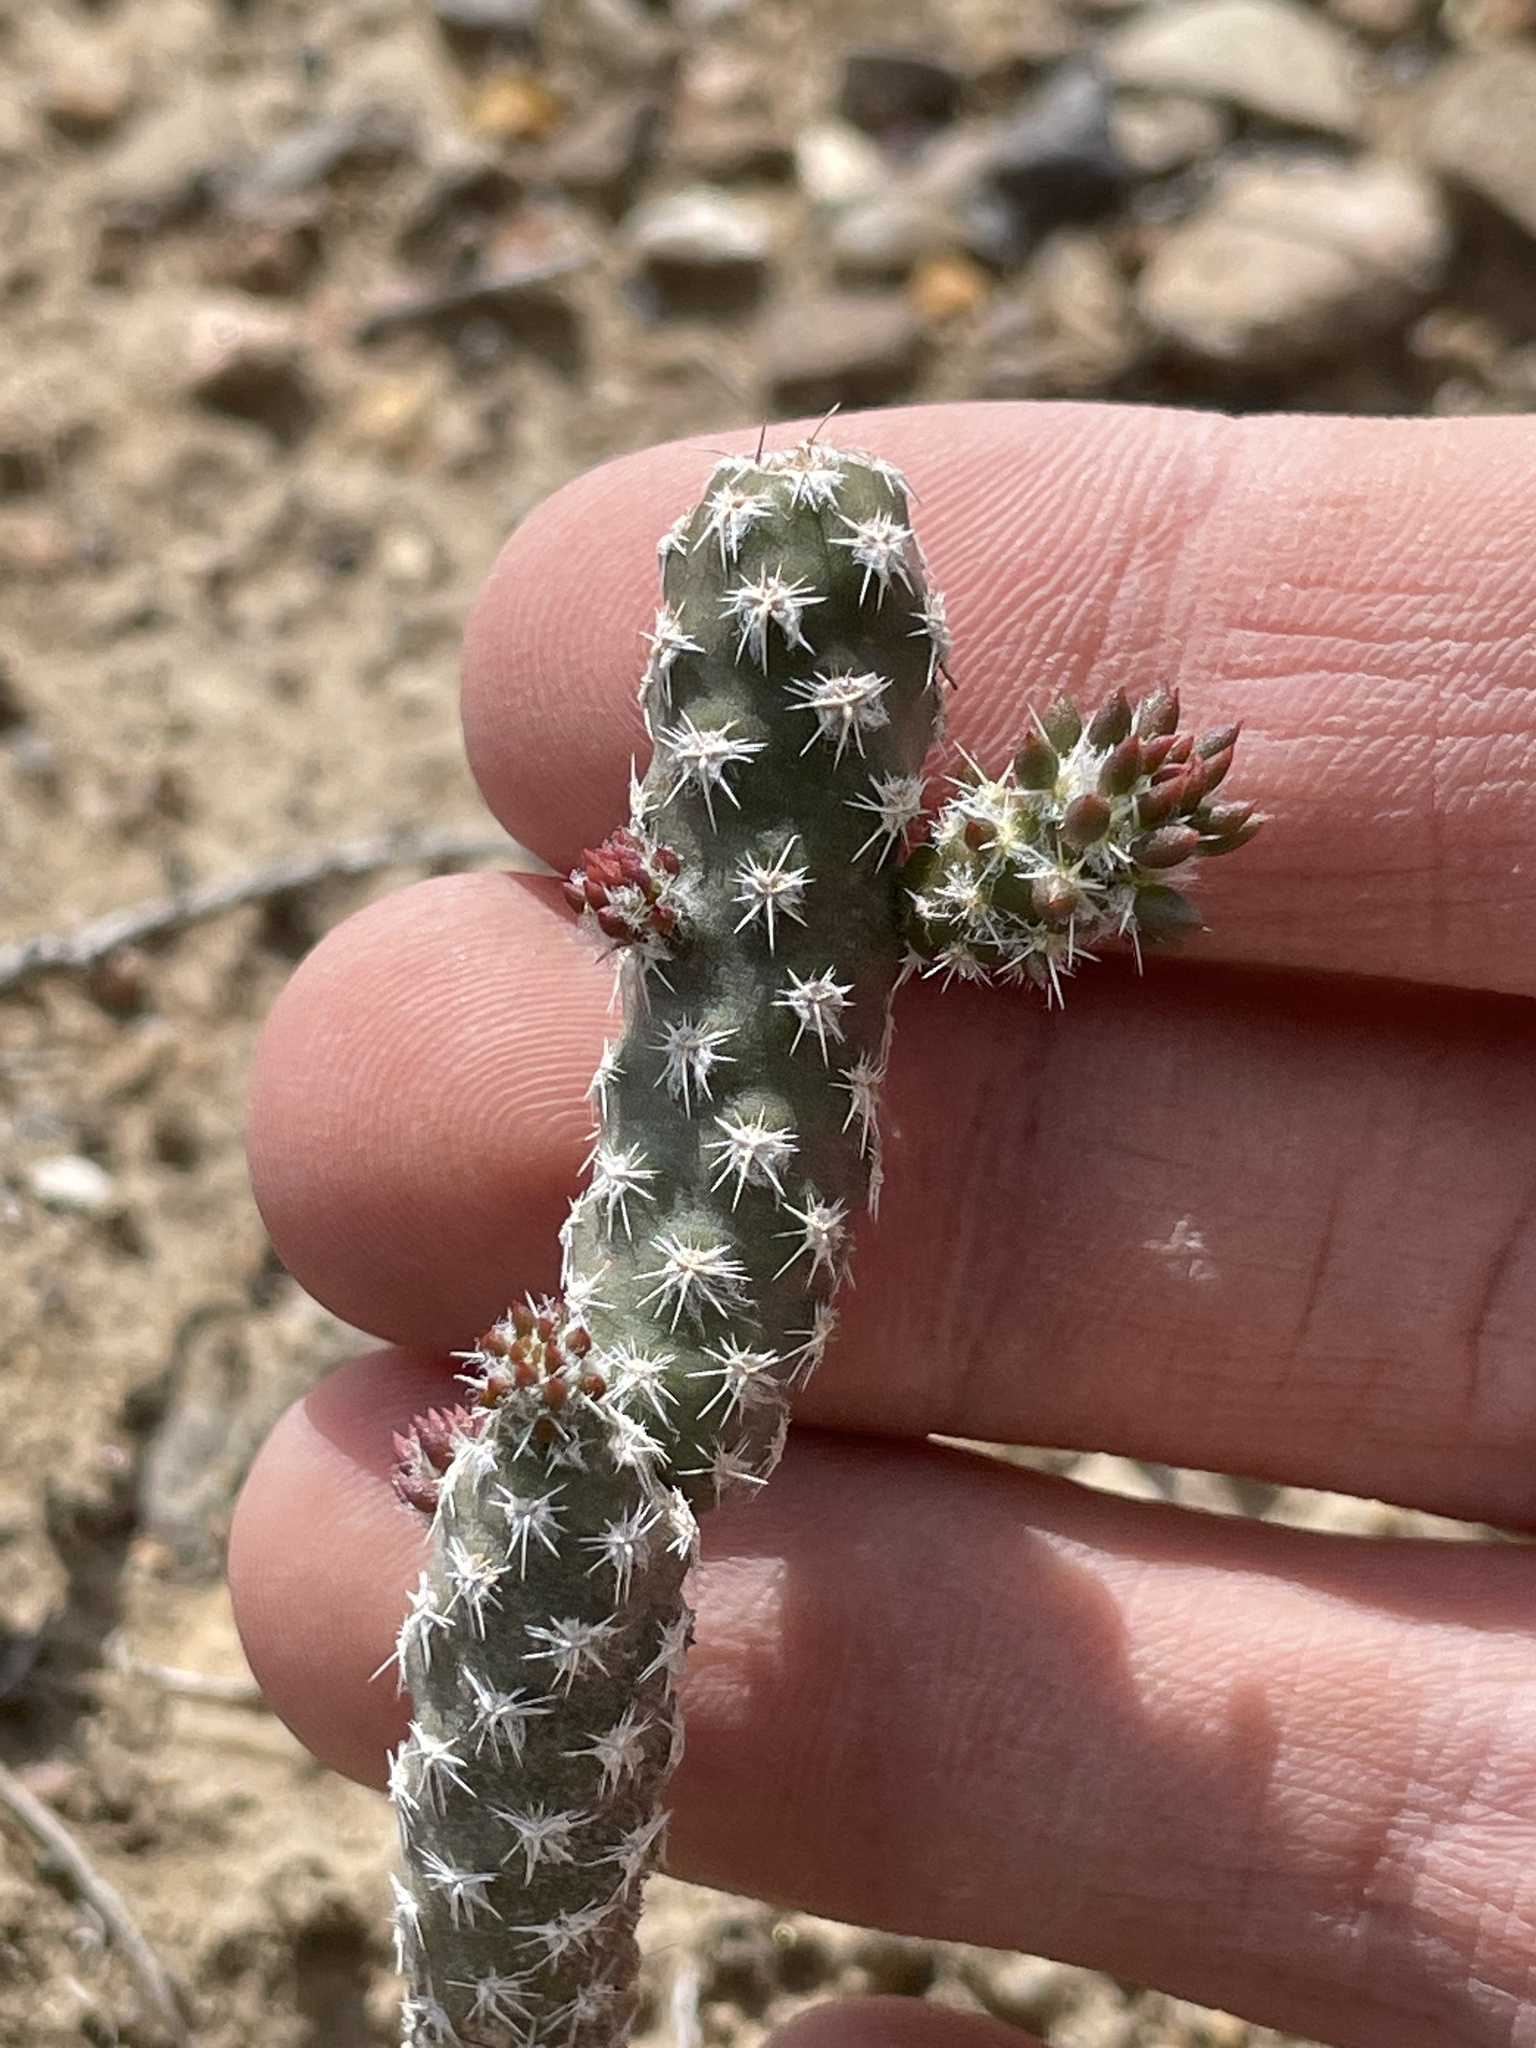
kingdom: Plantae
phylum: Tracheophyta
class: Magnoliopsida
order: Caryophyllales
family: Cactaceae
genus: Micropuntia
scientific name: Micropuntia pulchella
